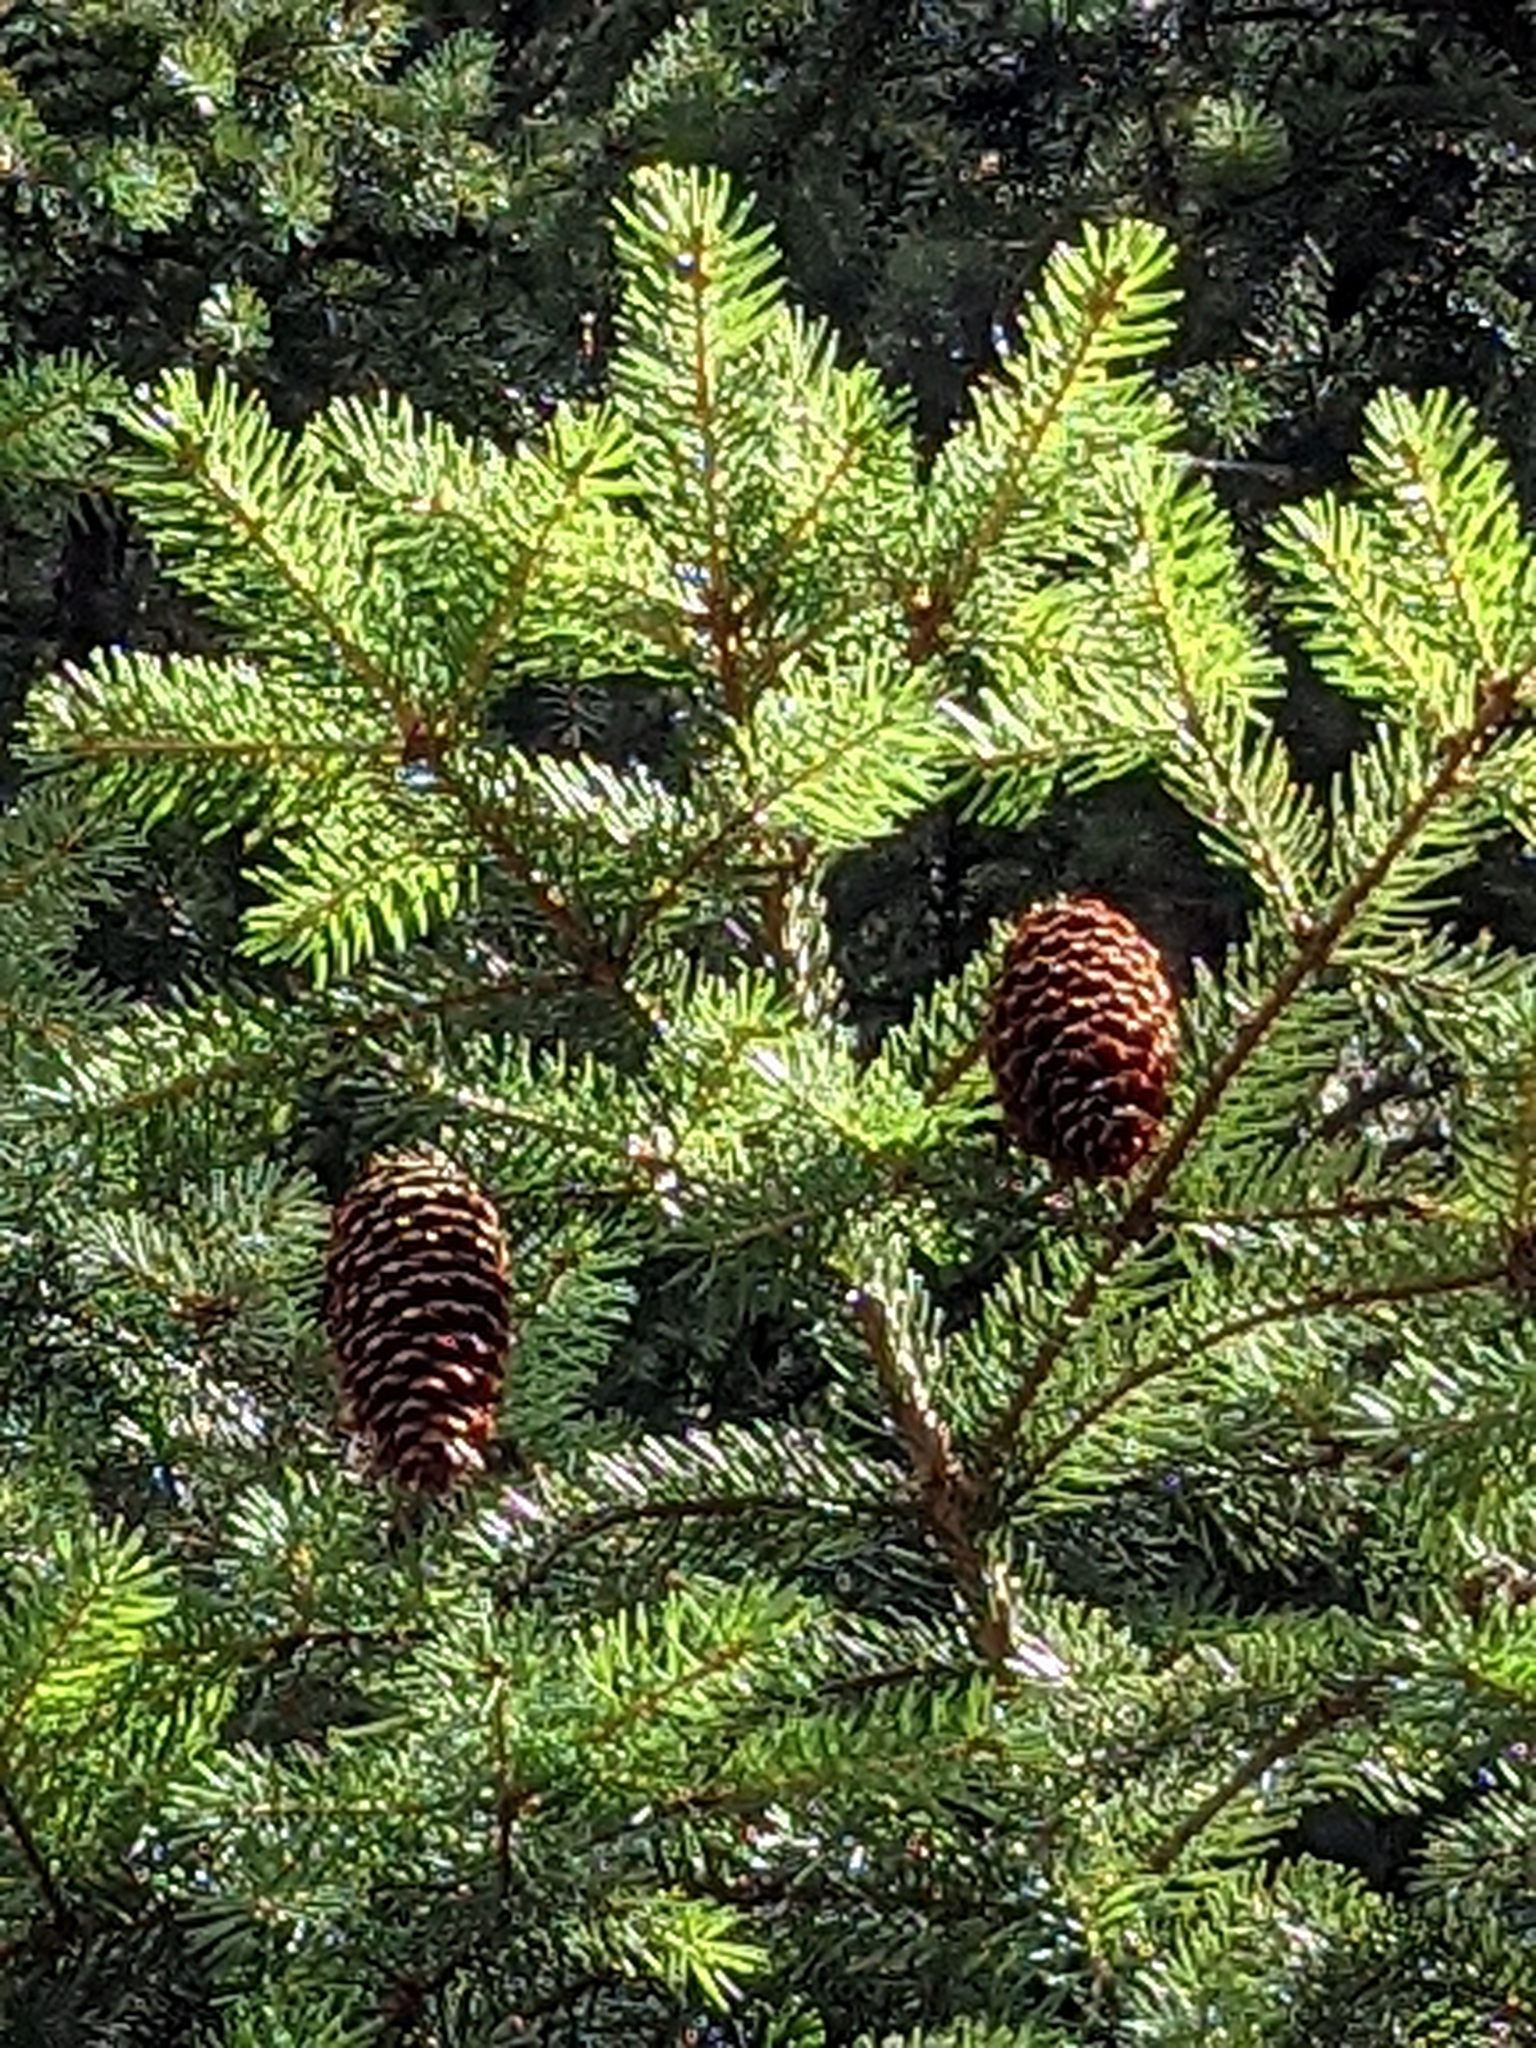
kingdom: Plantae
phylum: Tracheophyta
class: Pinopsida
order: Pinales
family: Pinaceae
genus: Picea
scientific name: Picea abies
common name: Norway spruce
